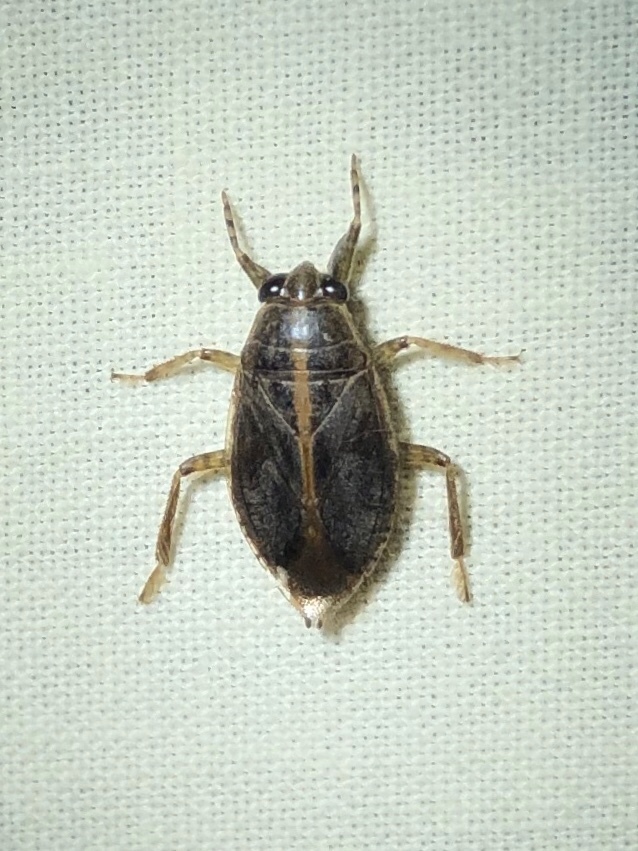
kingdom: Animalia
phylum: Arthropoda
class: Insecta
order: Hemiptera
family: Belostomatidae
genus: Belostoma
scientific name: Belostoma
